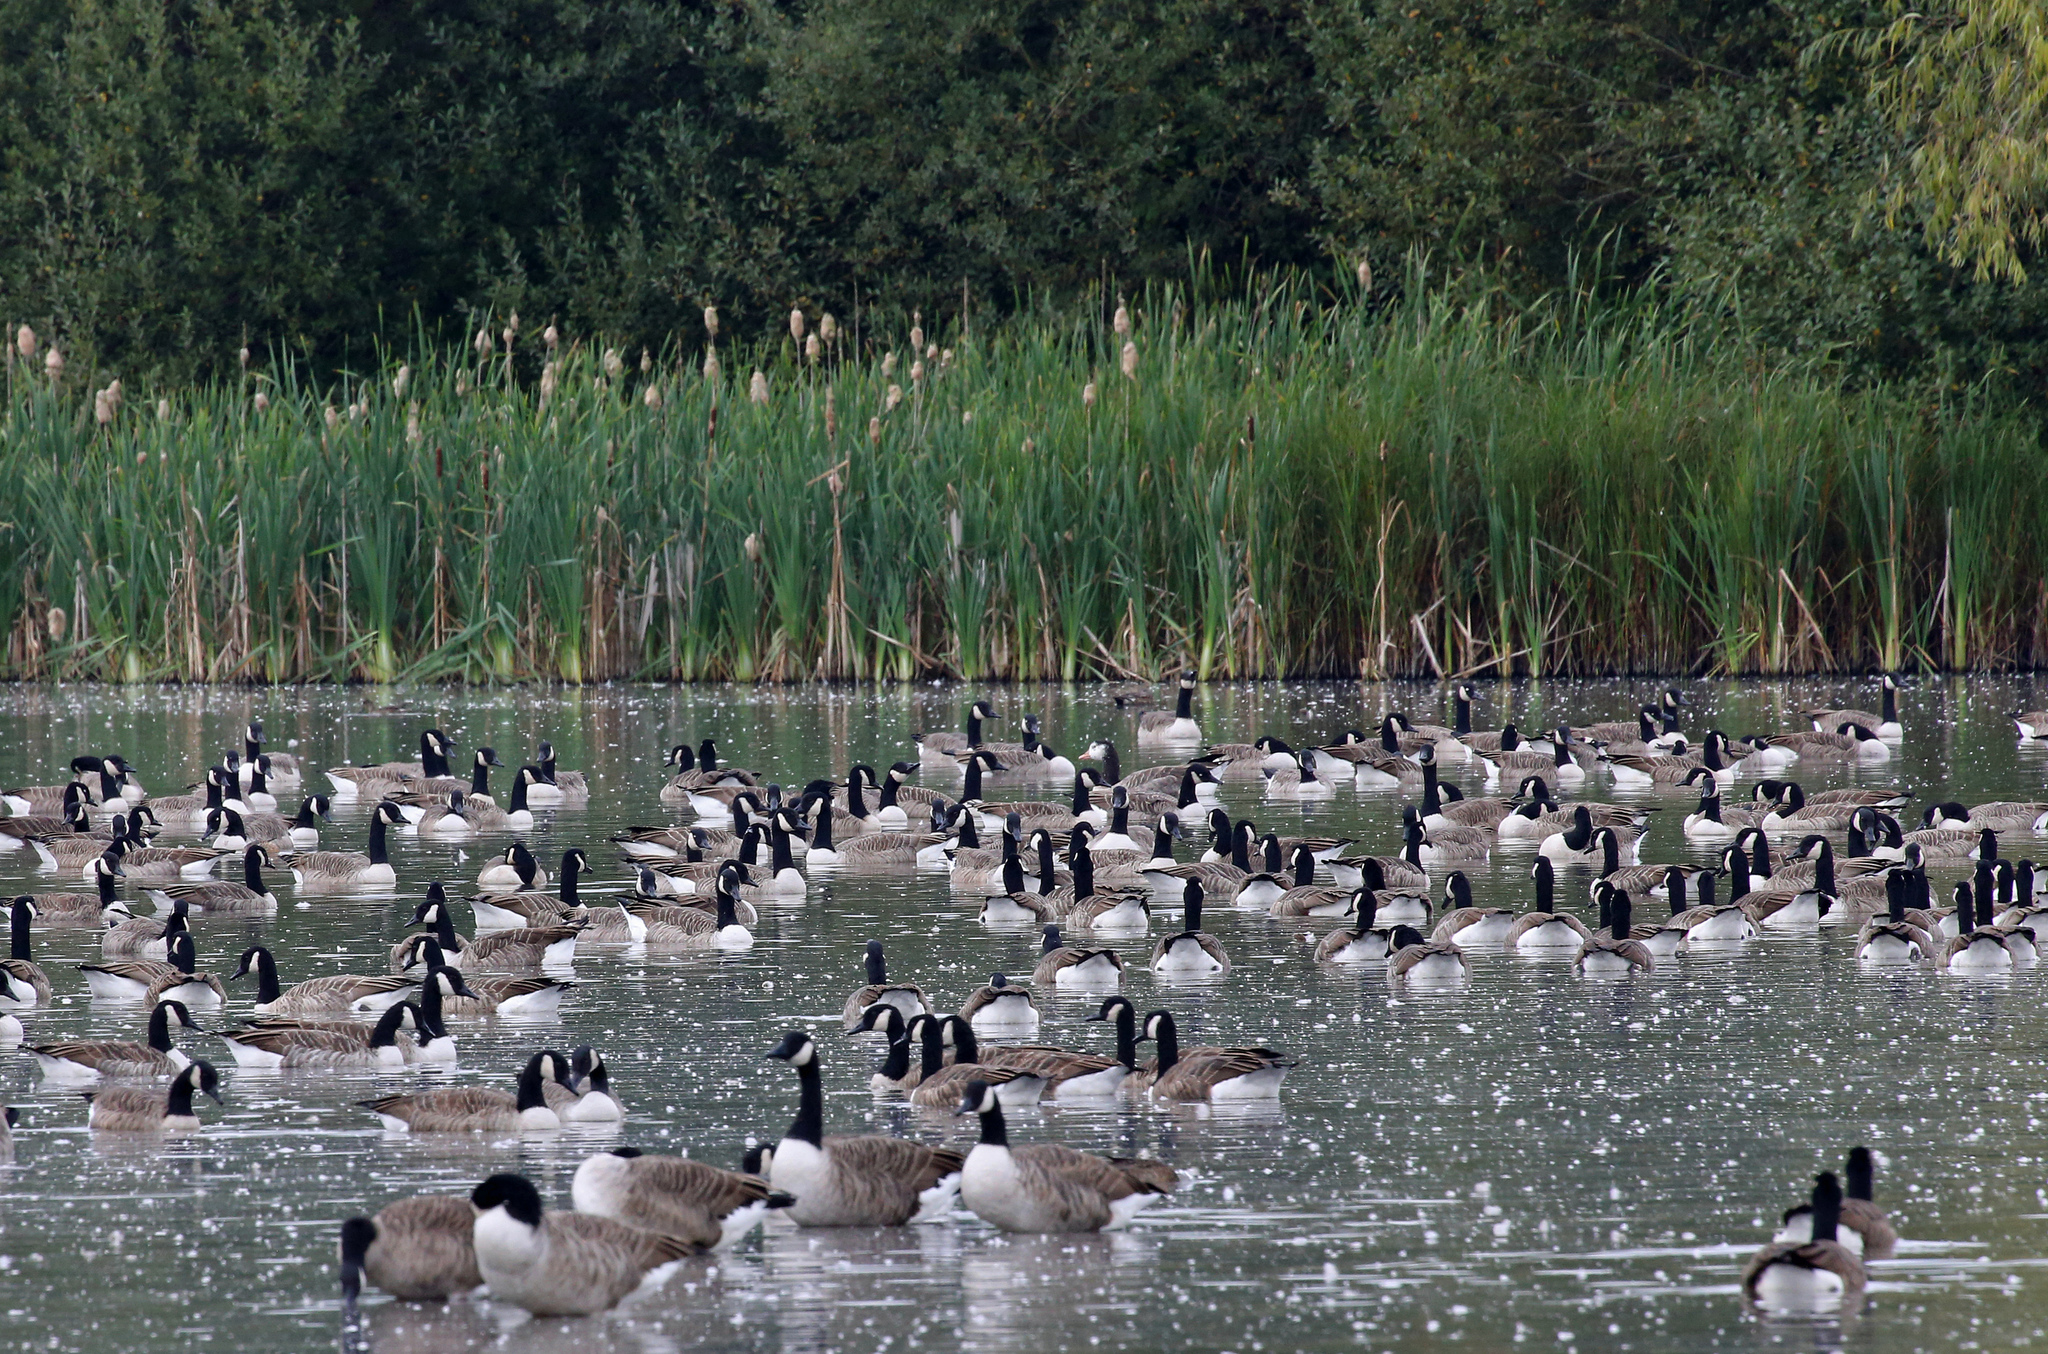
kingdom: Animalia
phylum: Chordata
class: Aves
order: Anseriformes
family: Anatidae
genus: Branta
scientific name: Branta canadensis
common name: Canada goose
